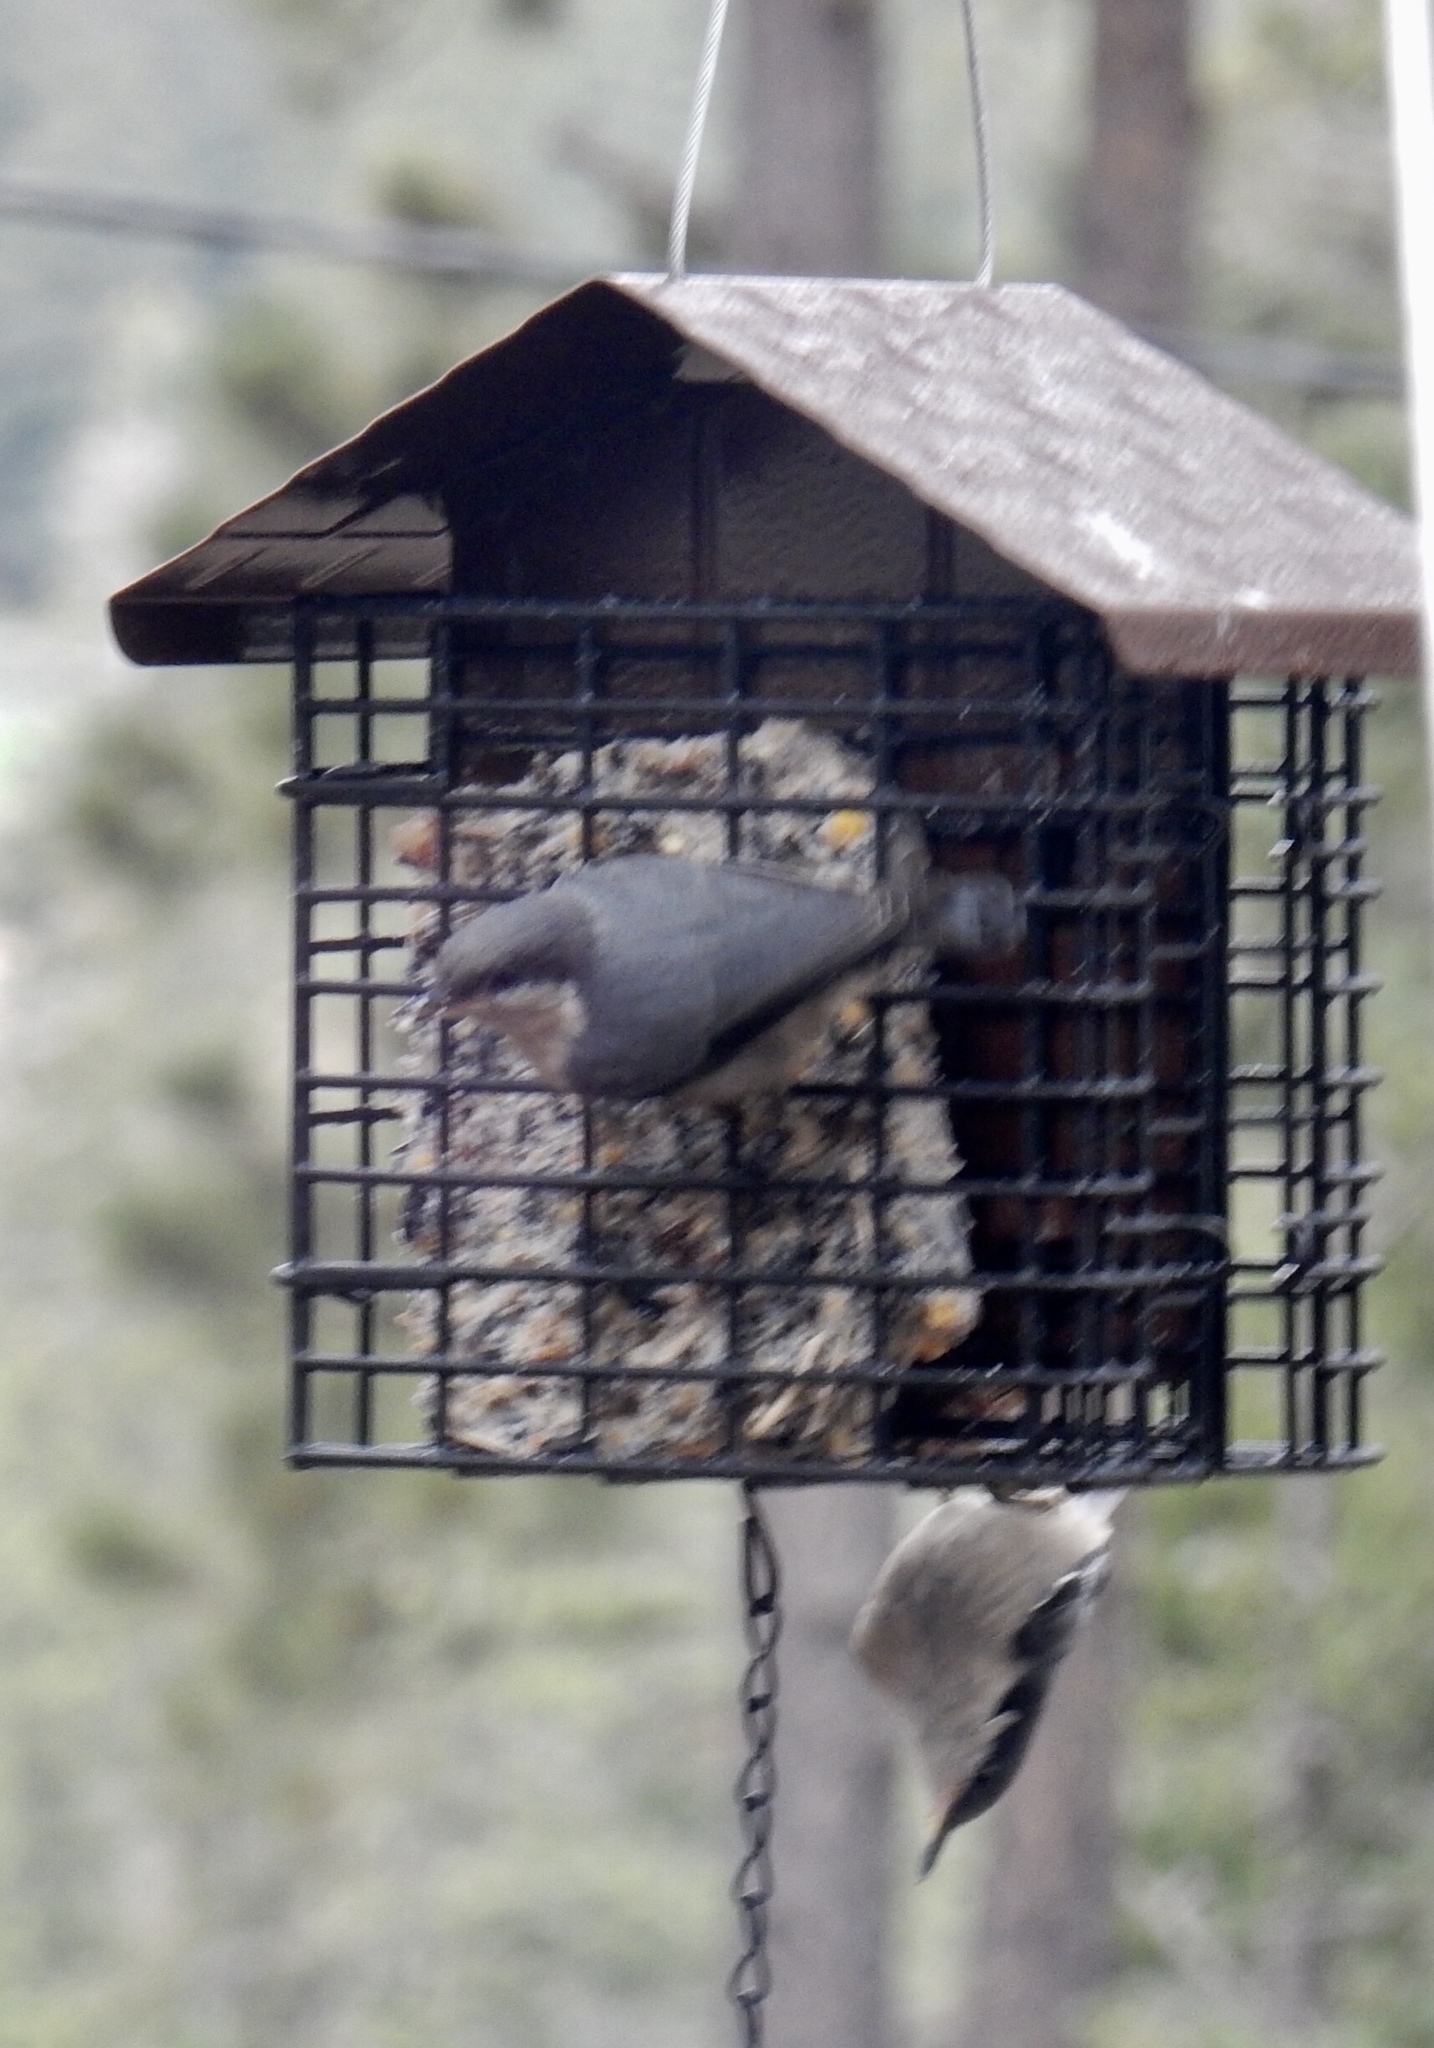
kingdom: Animalia
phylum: Chordata
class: Aves
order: Passeriformes
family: Sittidae
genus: Sitta
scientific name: Sitta pygmaea
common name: Pygmy nuthatch
